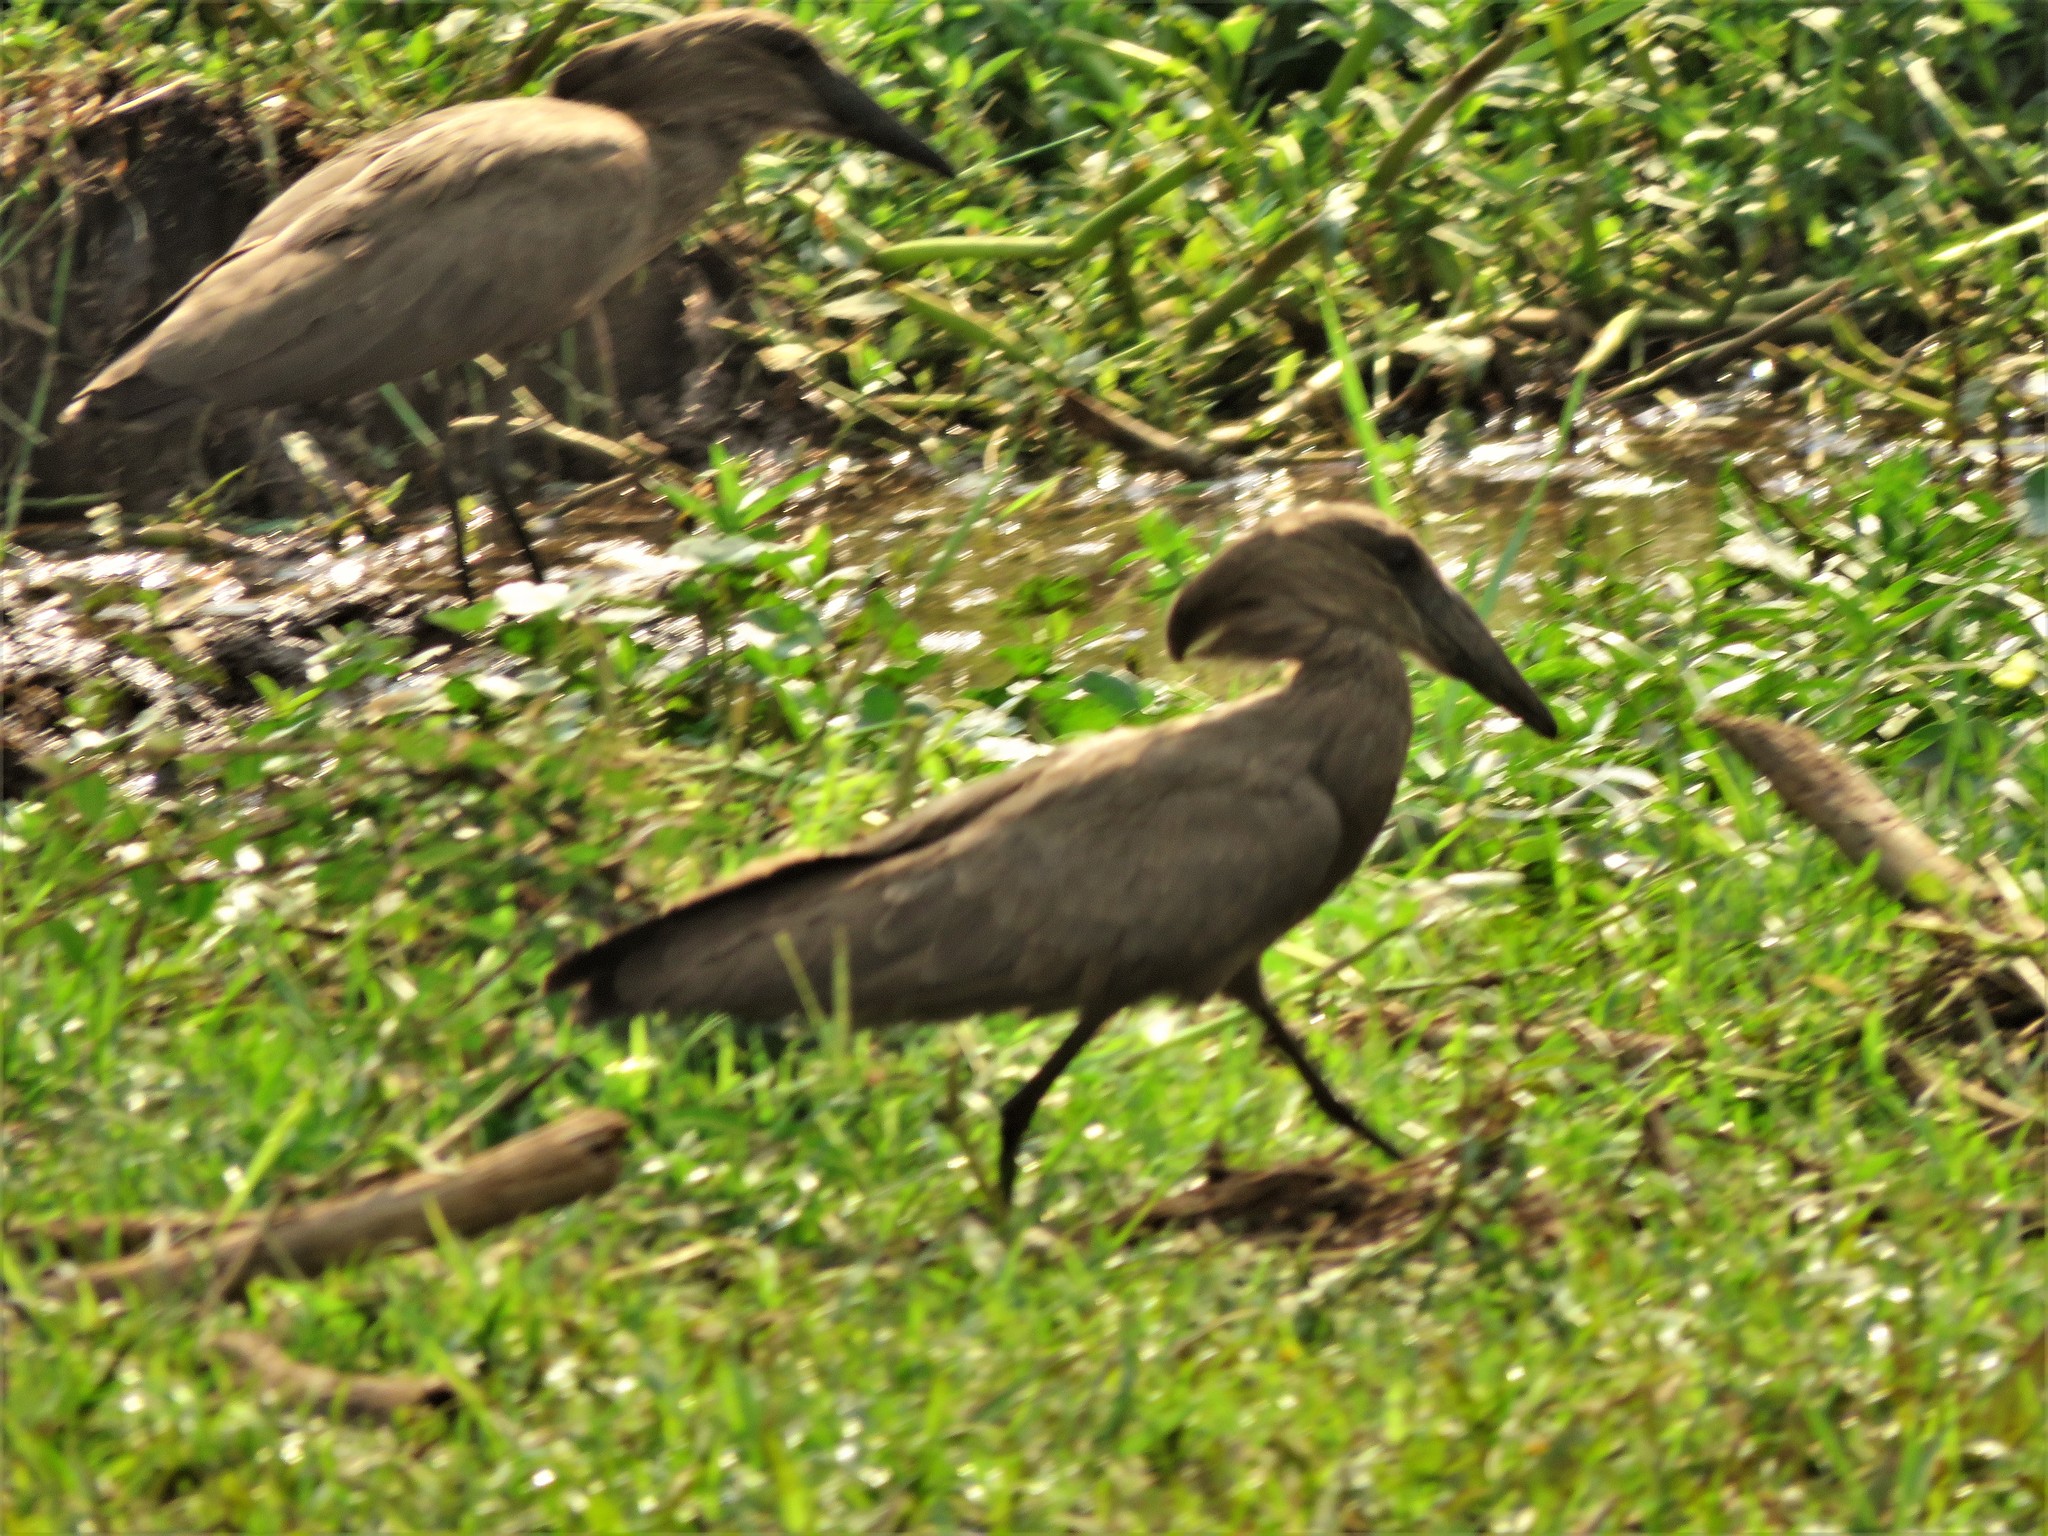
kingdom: Animalia
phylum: Chordata
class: Aves
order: Pelecaniformes
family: Scopidae
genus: Scopus
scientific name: Scopus umbretta
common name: Hamerkop
